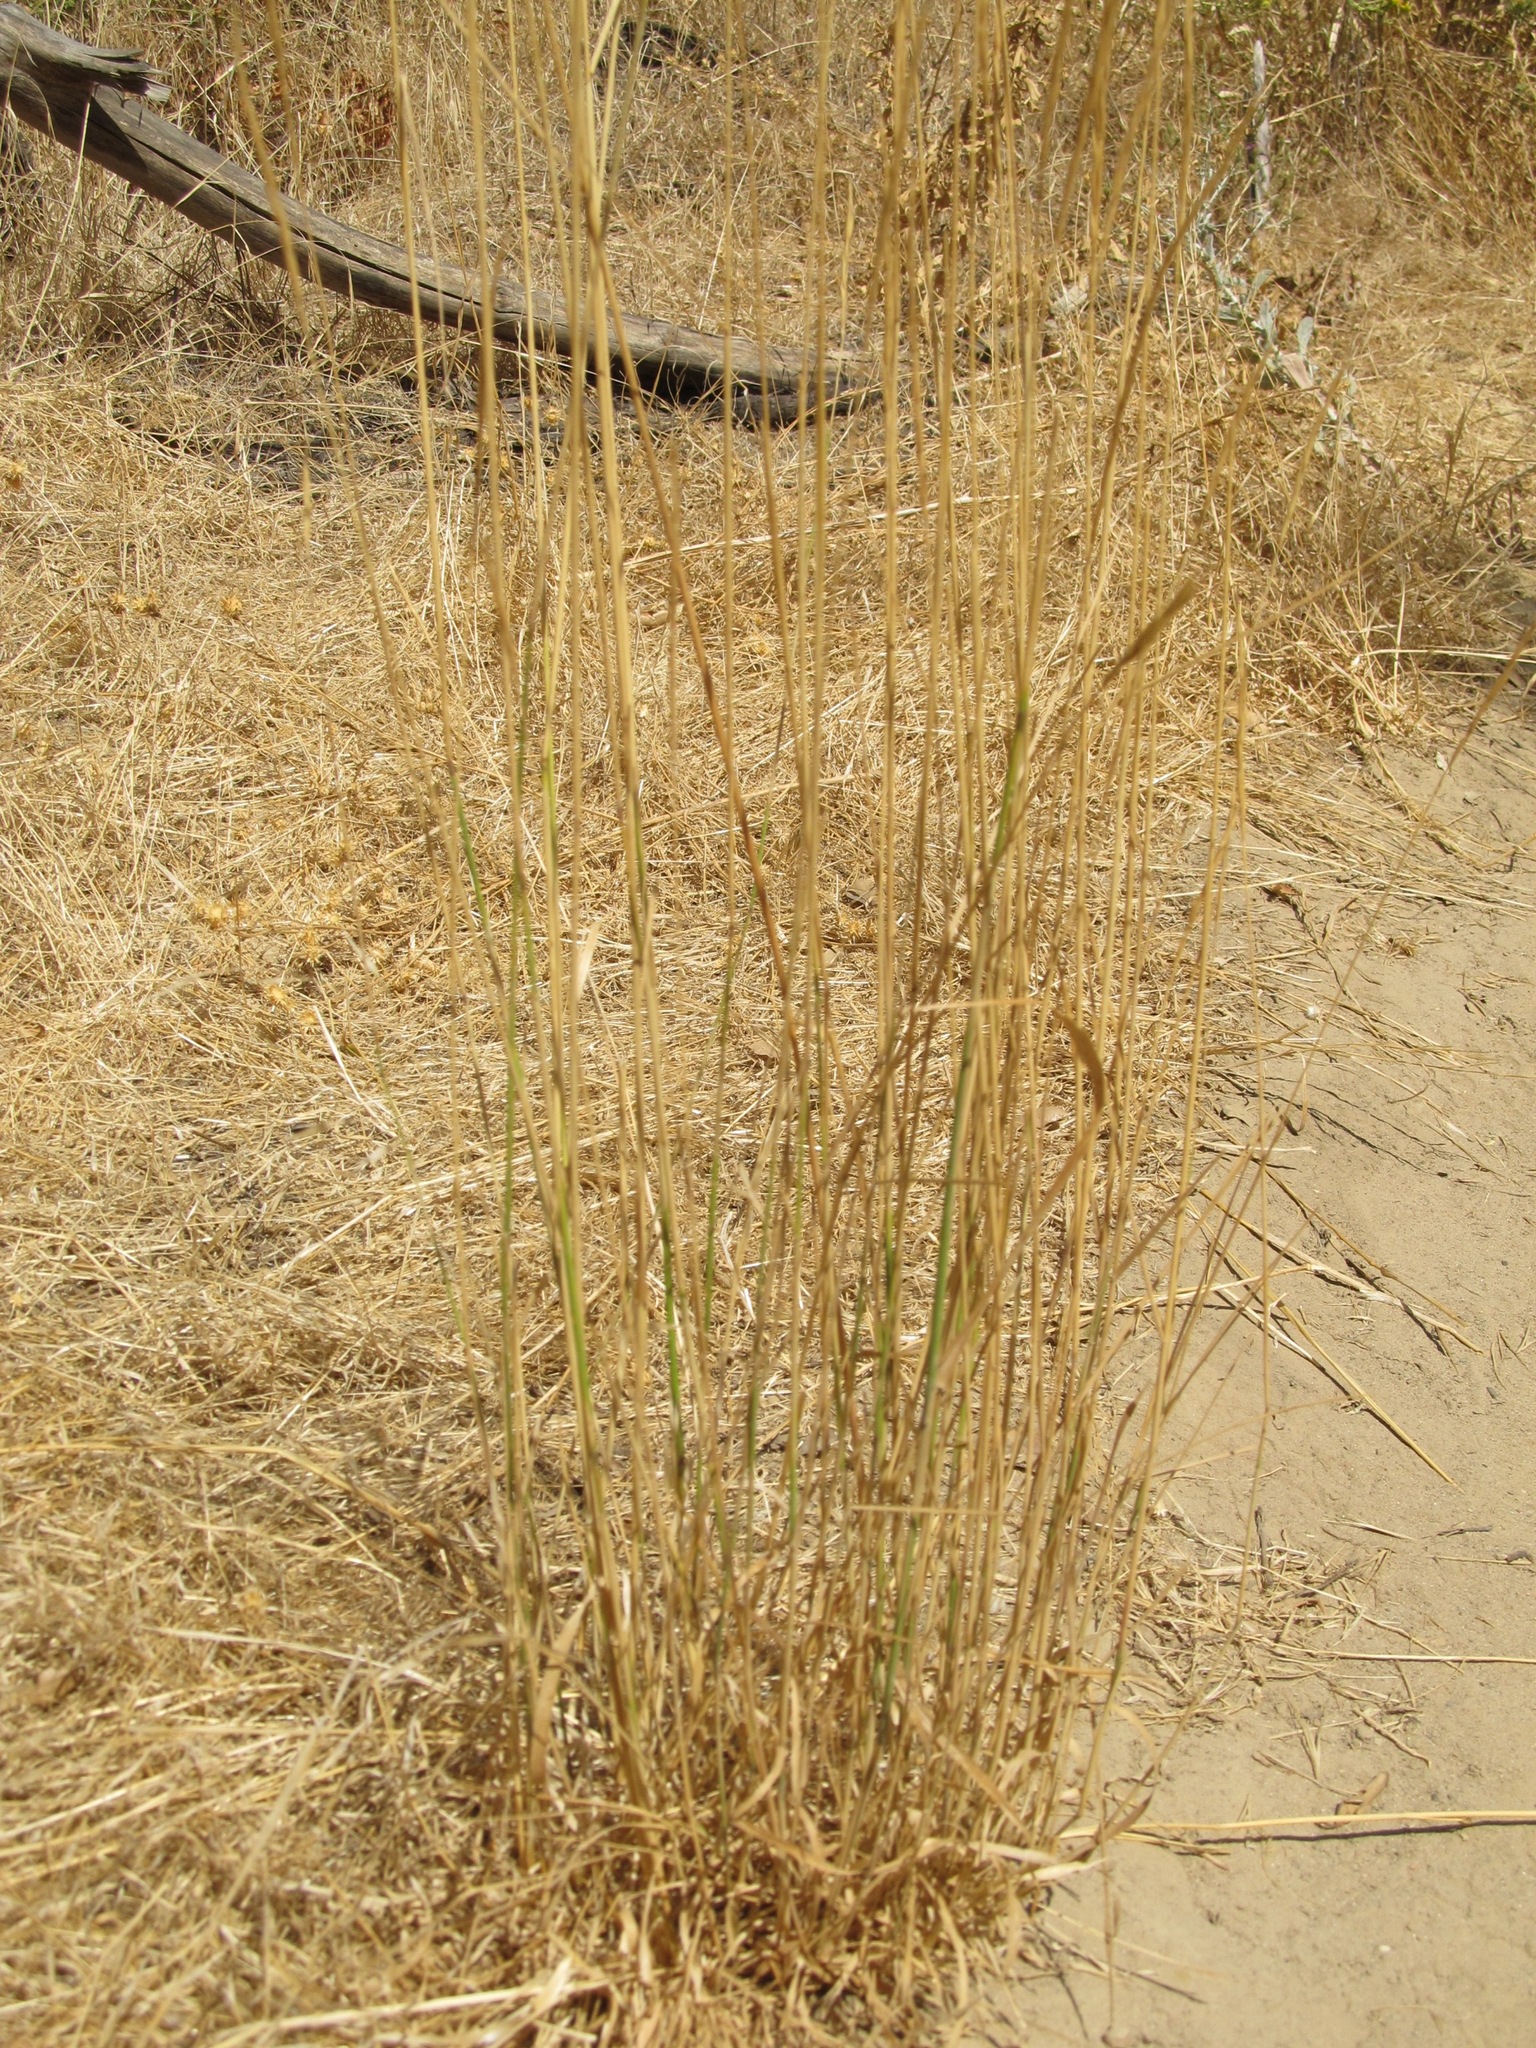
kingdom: Plantae
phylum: Tracheophyta
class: Liliopsida
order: Poales
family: Poaceae
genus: Elymus
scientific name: Elymus glaucus
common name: Blue wild rye
